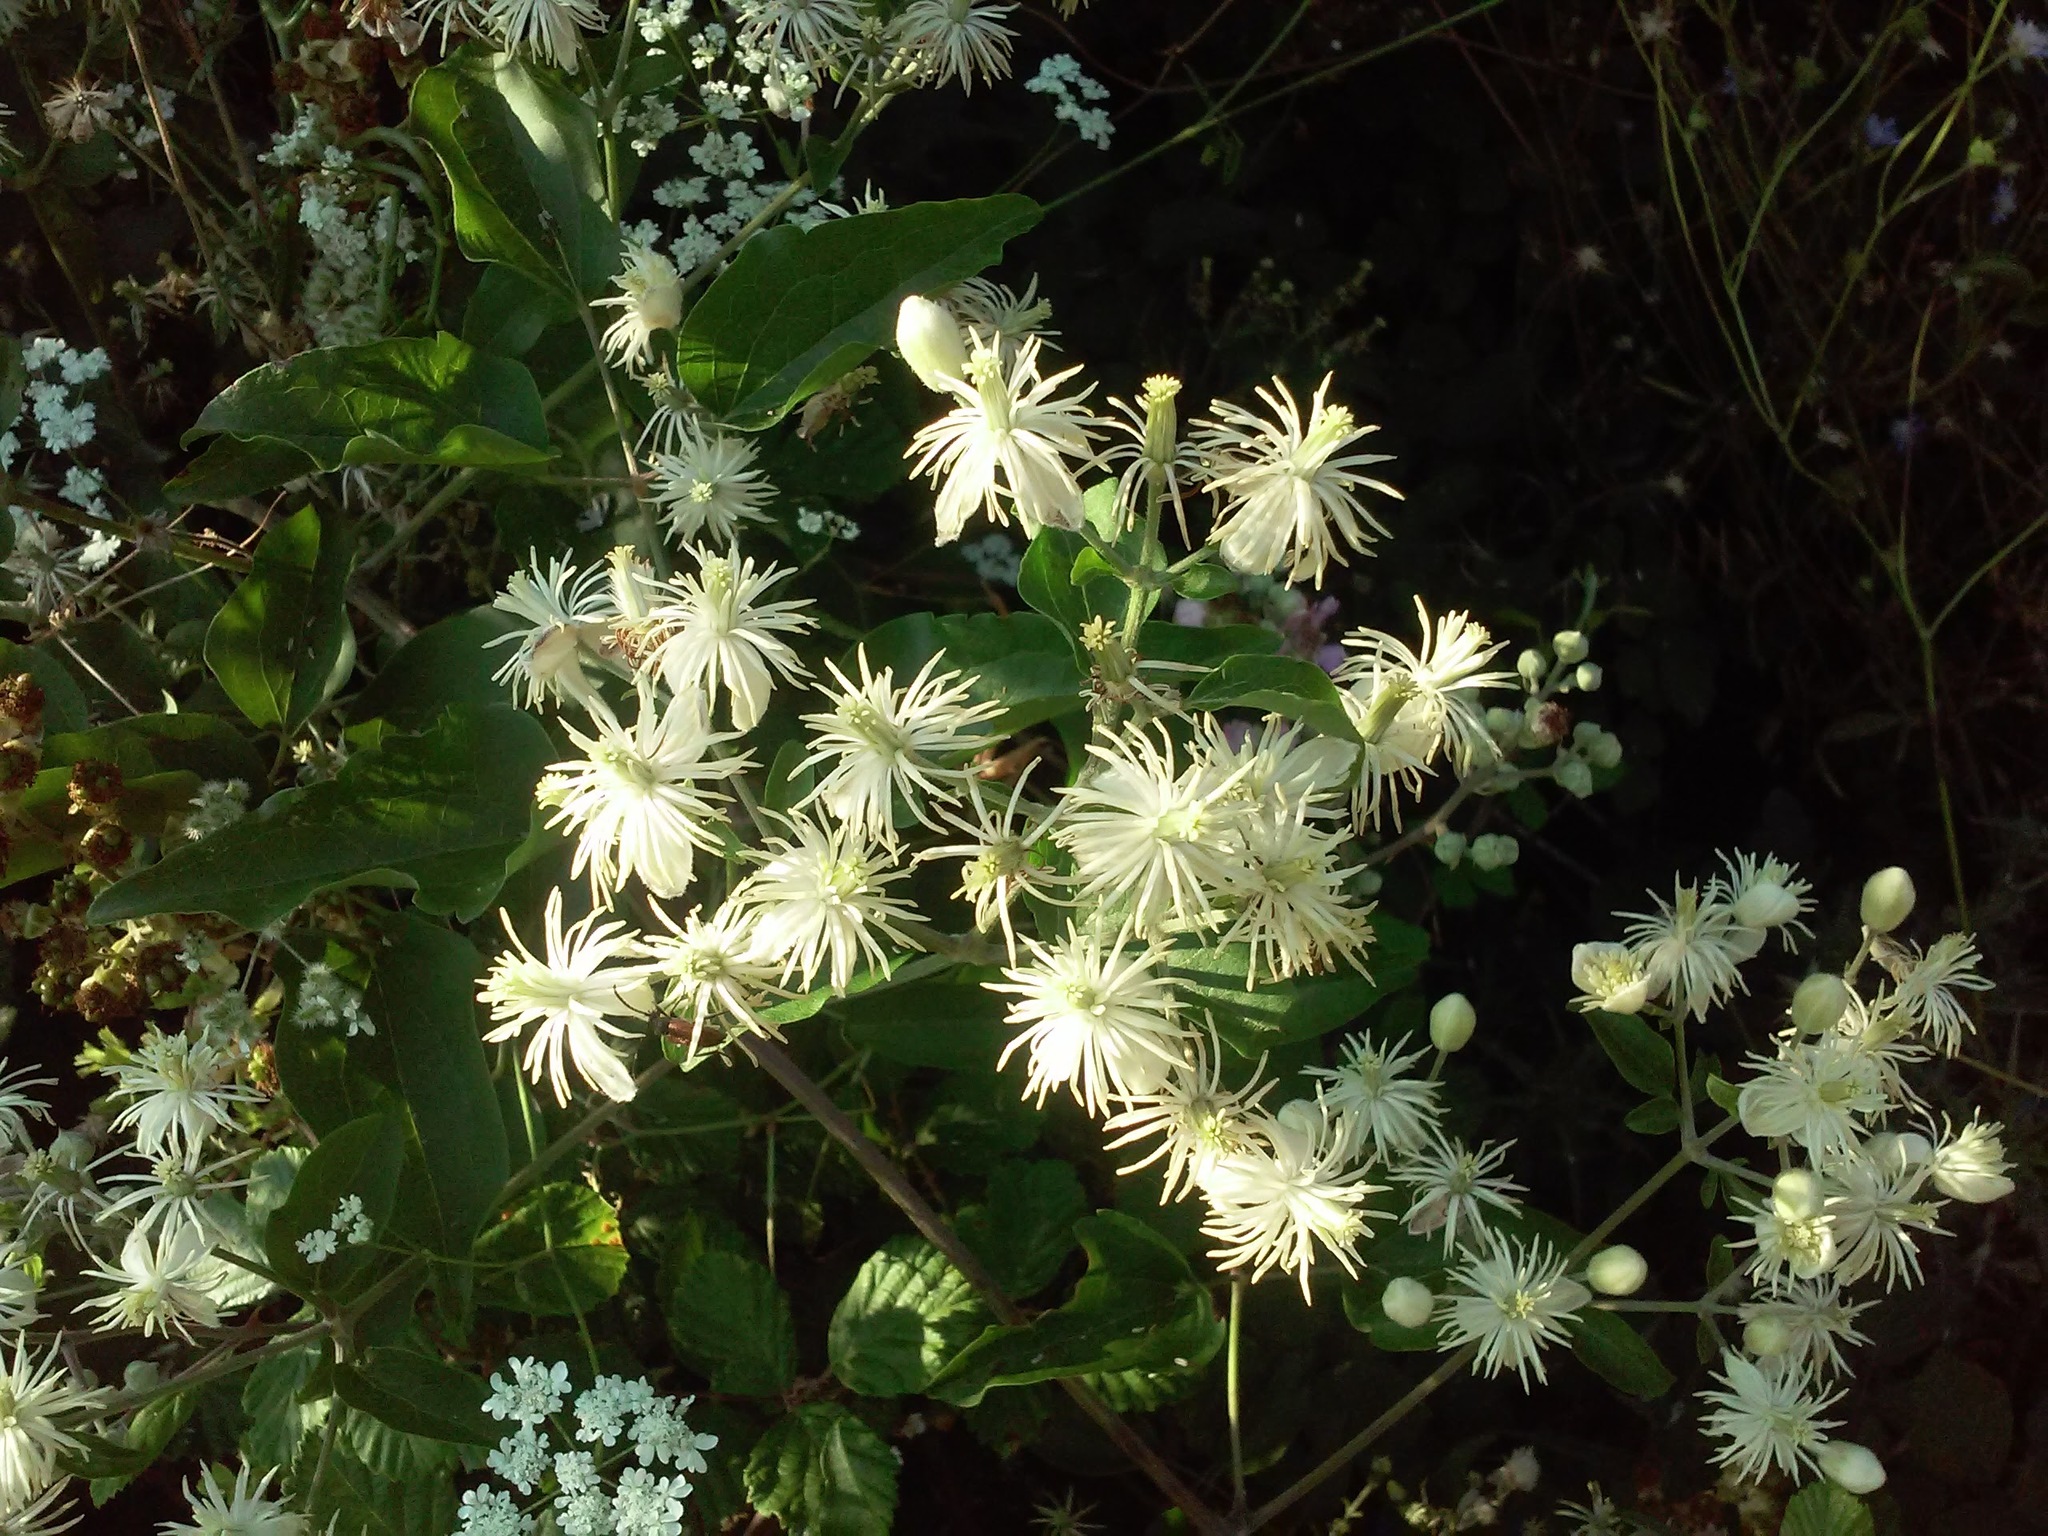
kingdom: Plantae
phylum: Tracheophyta
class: Magnoliopsida
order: Ranunculales
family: Ranunculaceae
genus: Clematis
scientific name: Clematis vitalba
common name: Evergreen clematis
